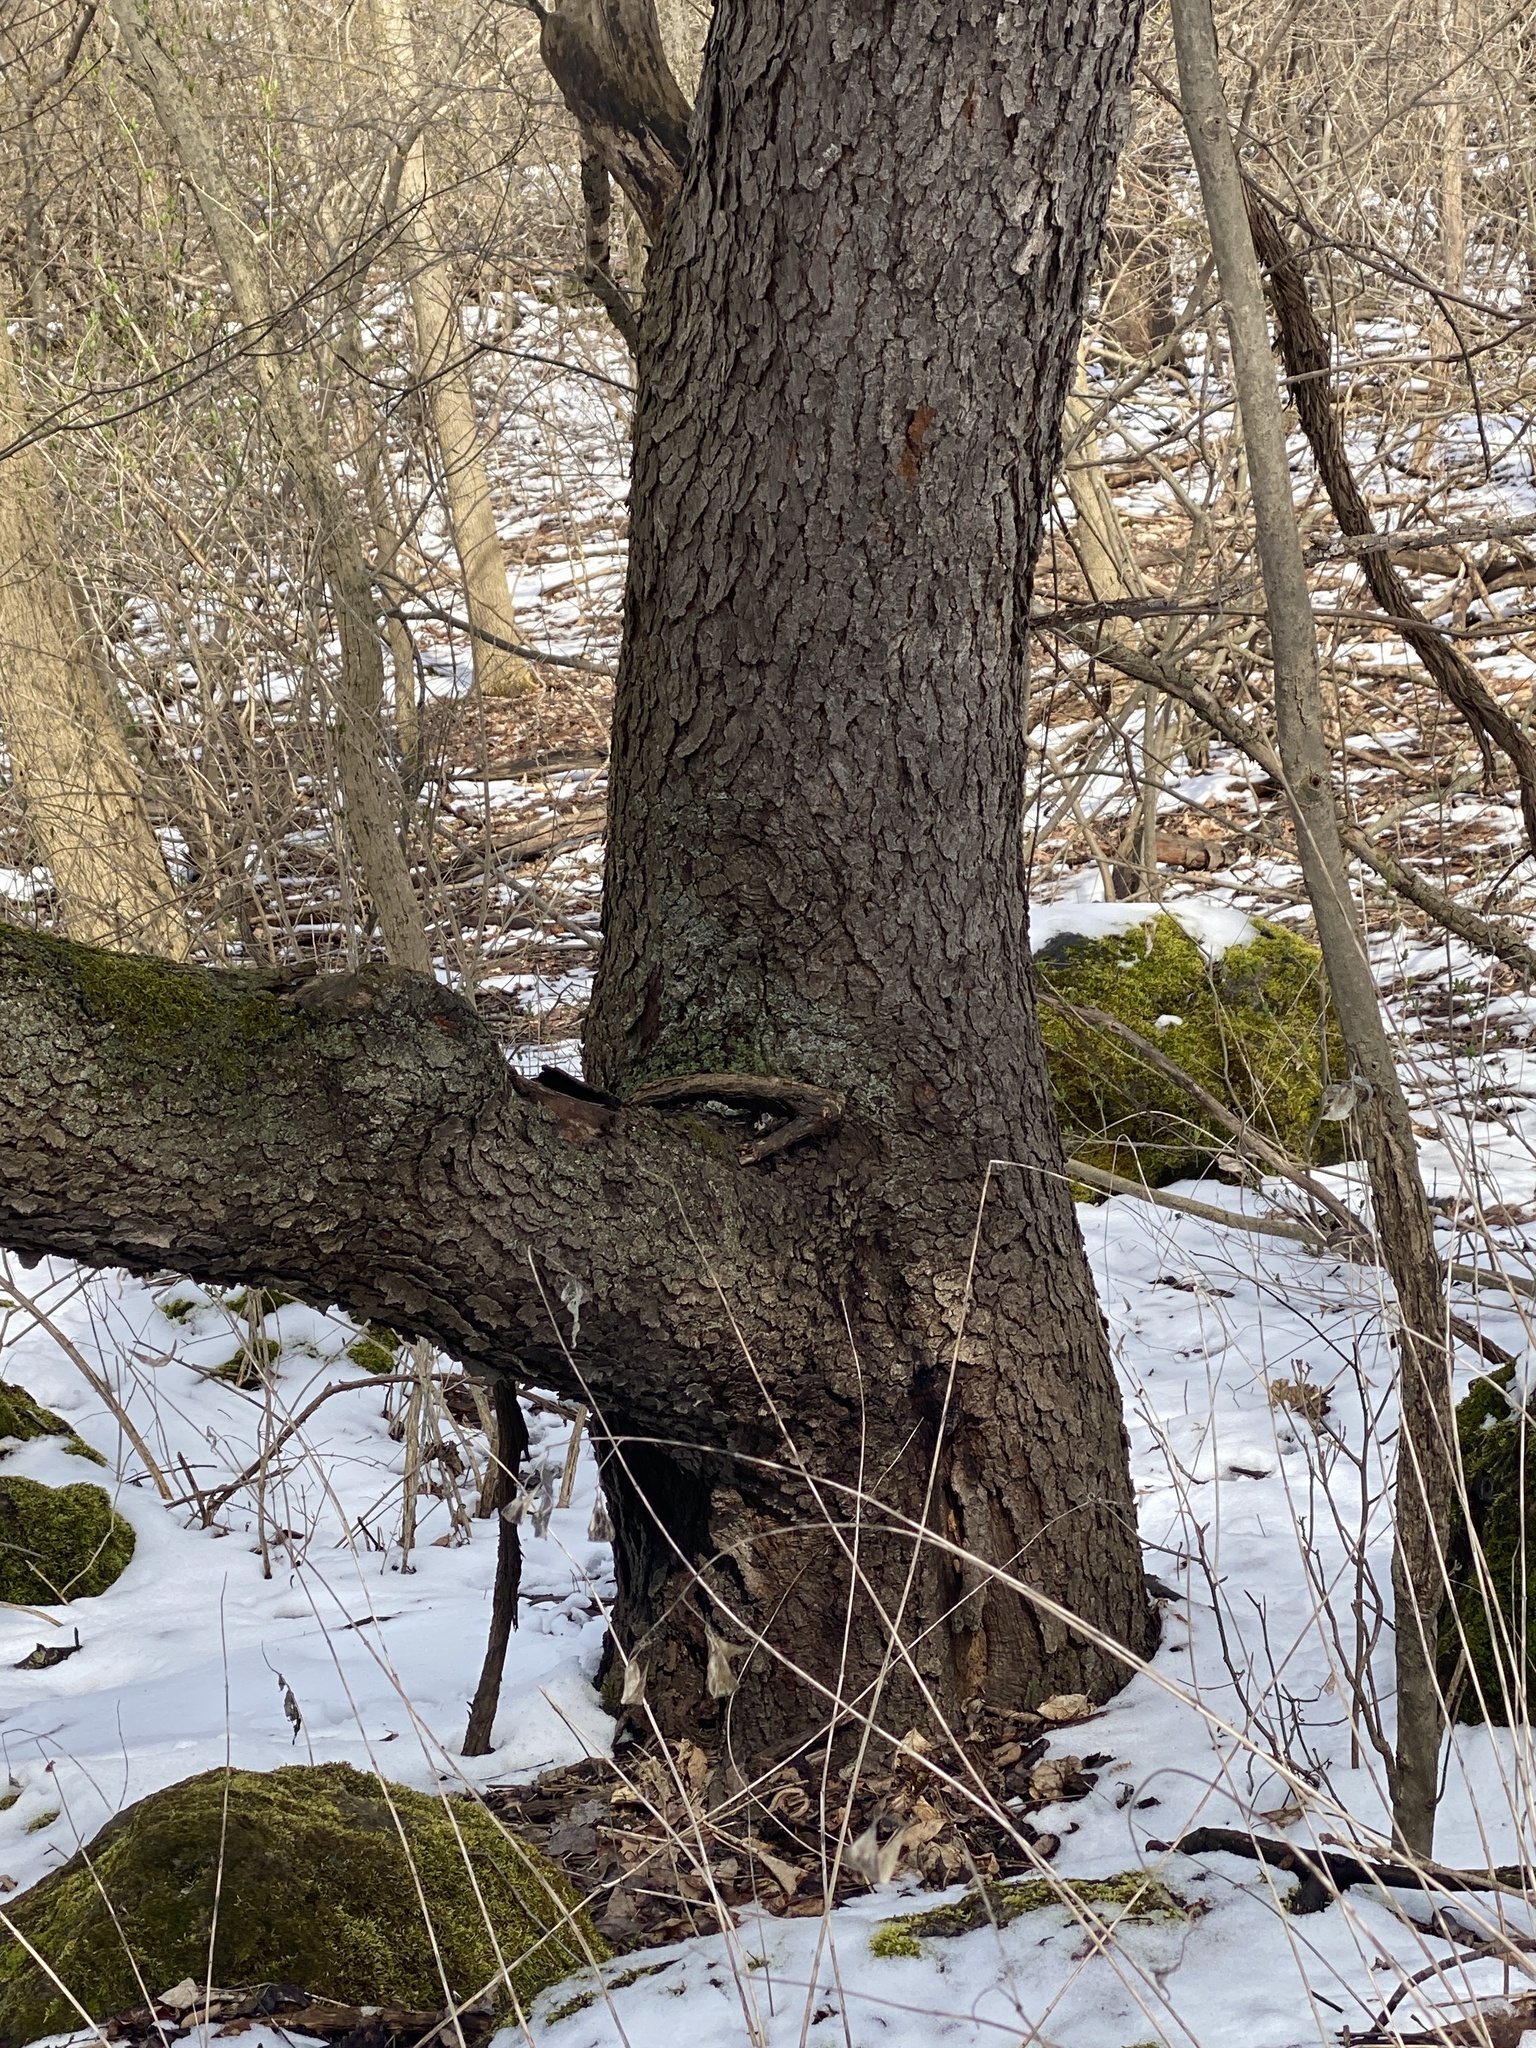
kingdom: Plantae
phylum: Tracheophyta
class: Magnoliopsida
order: Rosales
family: Rosaceae
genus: Prunus
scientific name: Prunus serotina
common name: Black cherry
